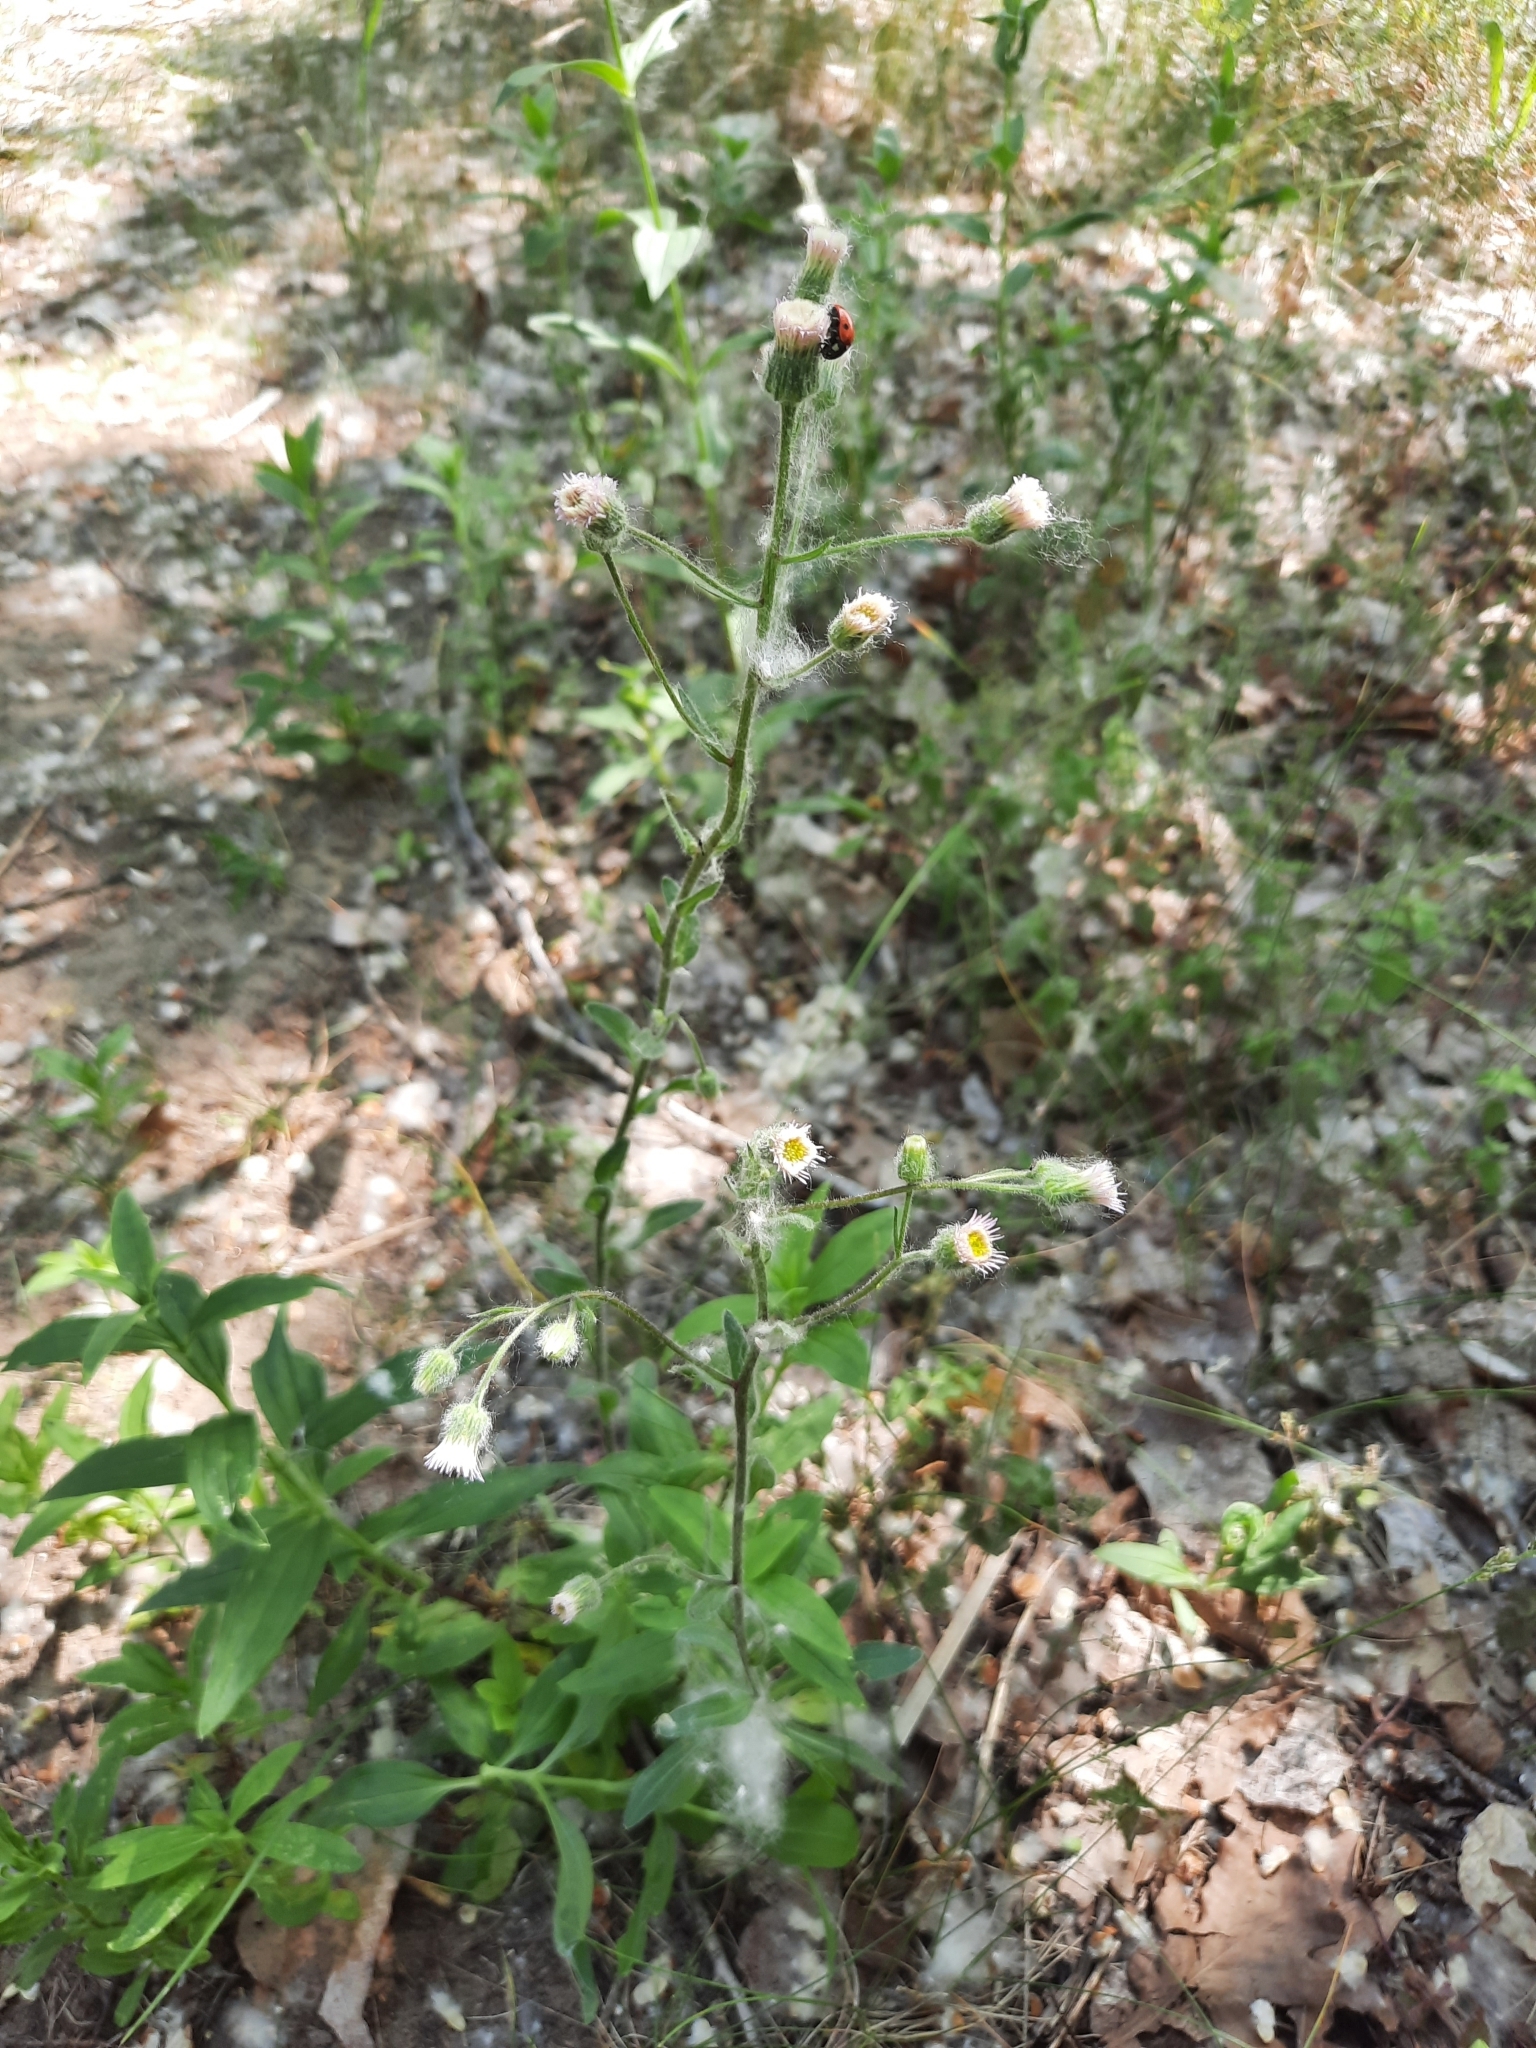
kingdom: Plantae
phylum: Tracheophyta
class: Magnoliopsida
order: Asterales
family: Asteraceae
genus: Erigeron
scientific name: Erigeron acris
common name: Blue fleabane
